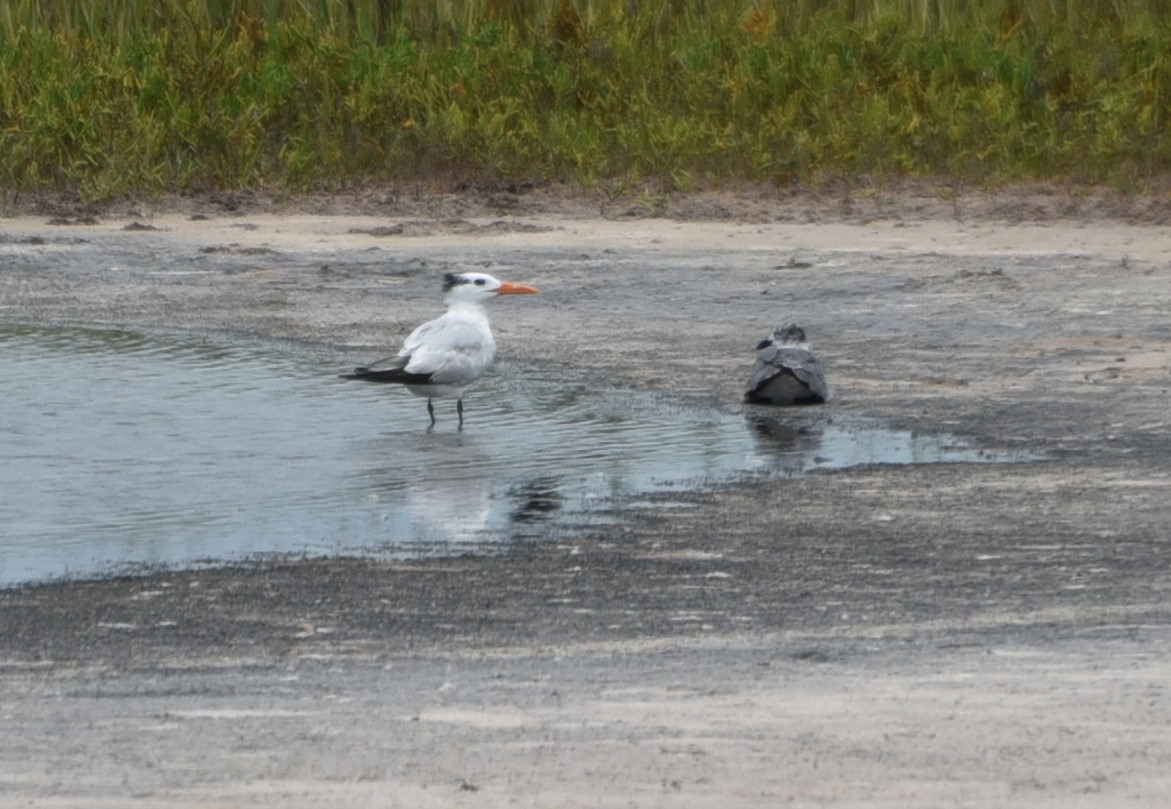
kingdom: Animalia
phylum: Chordata
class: Aves
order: Charadriiformes
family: Laridae
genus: Thalasseus
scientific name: Thalasseus maximus
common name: Royal tern
